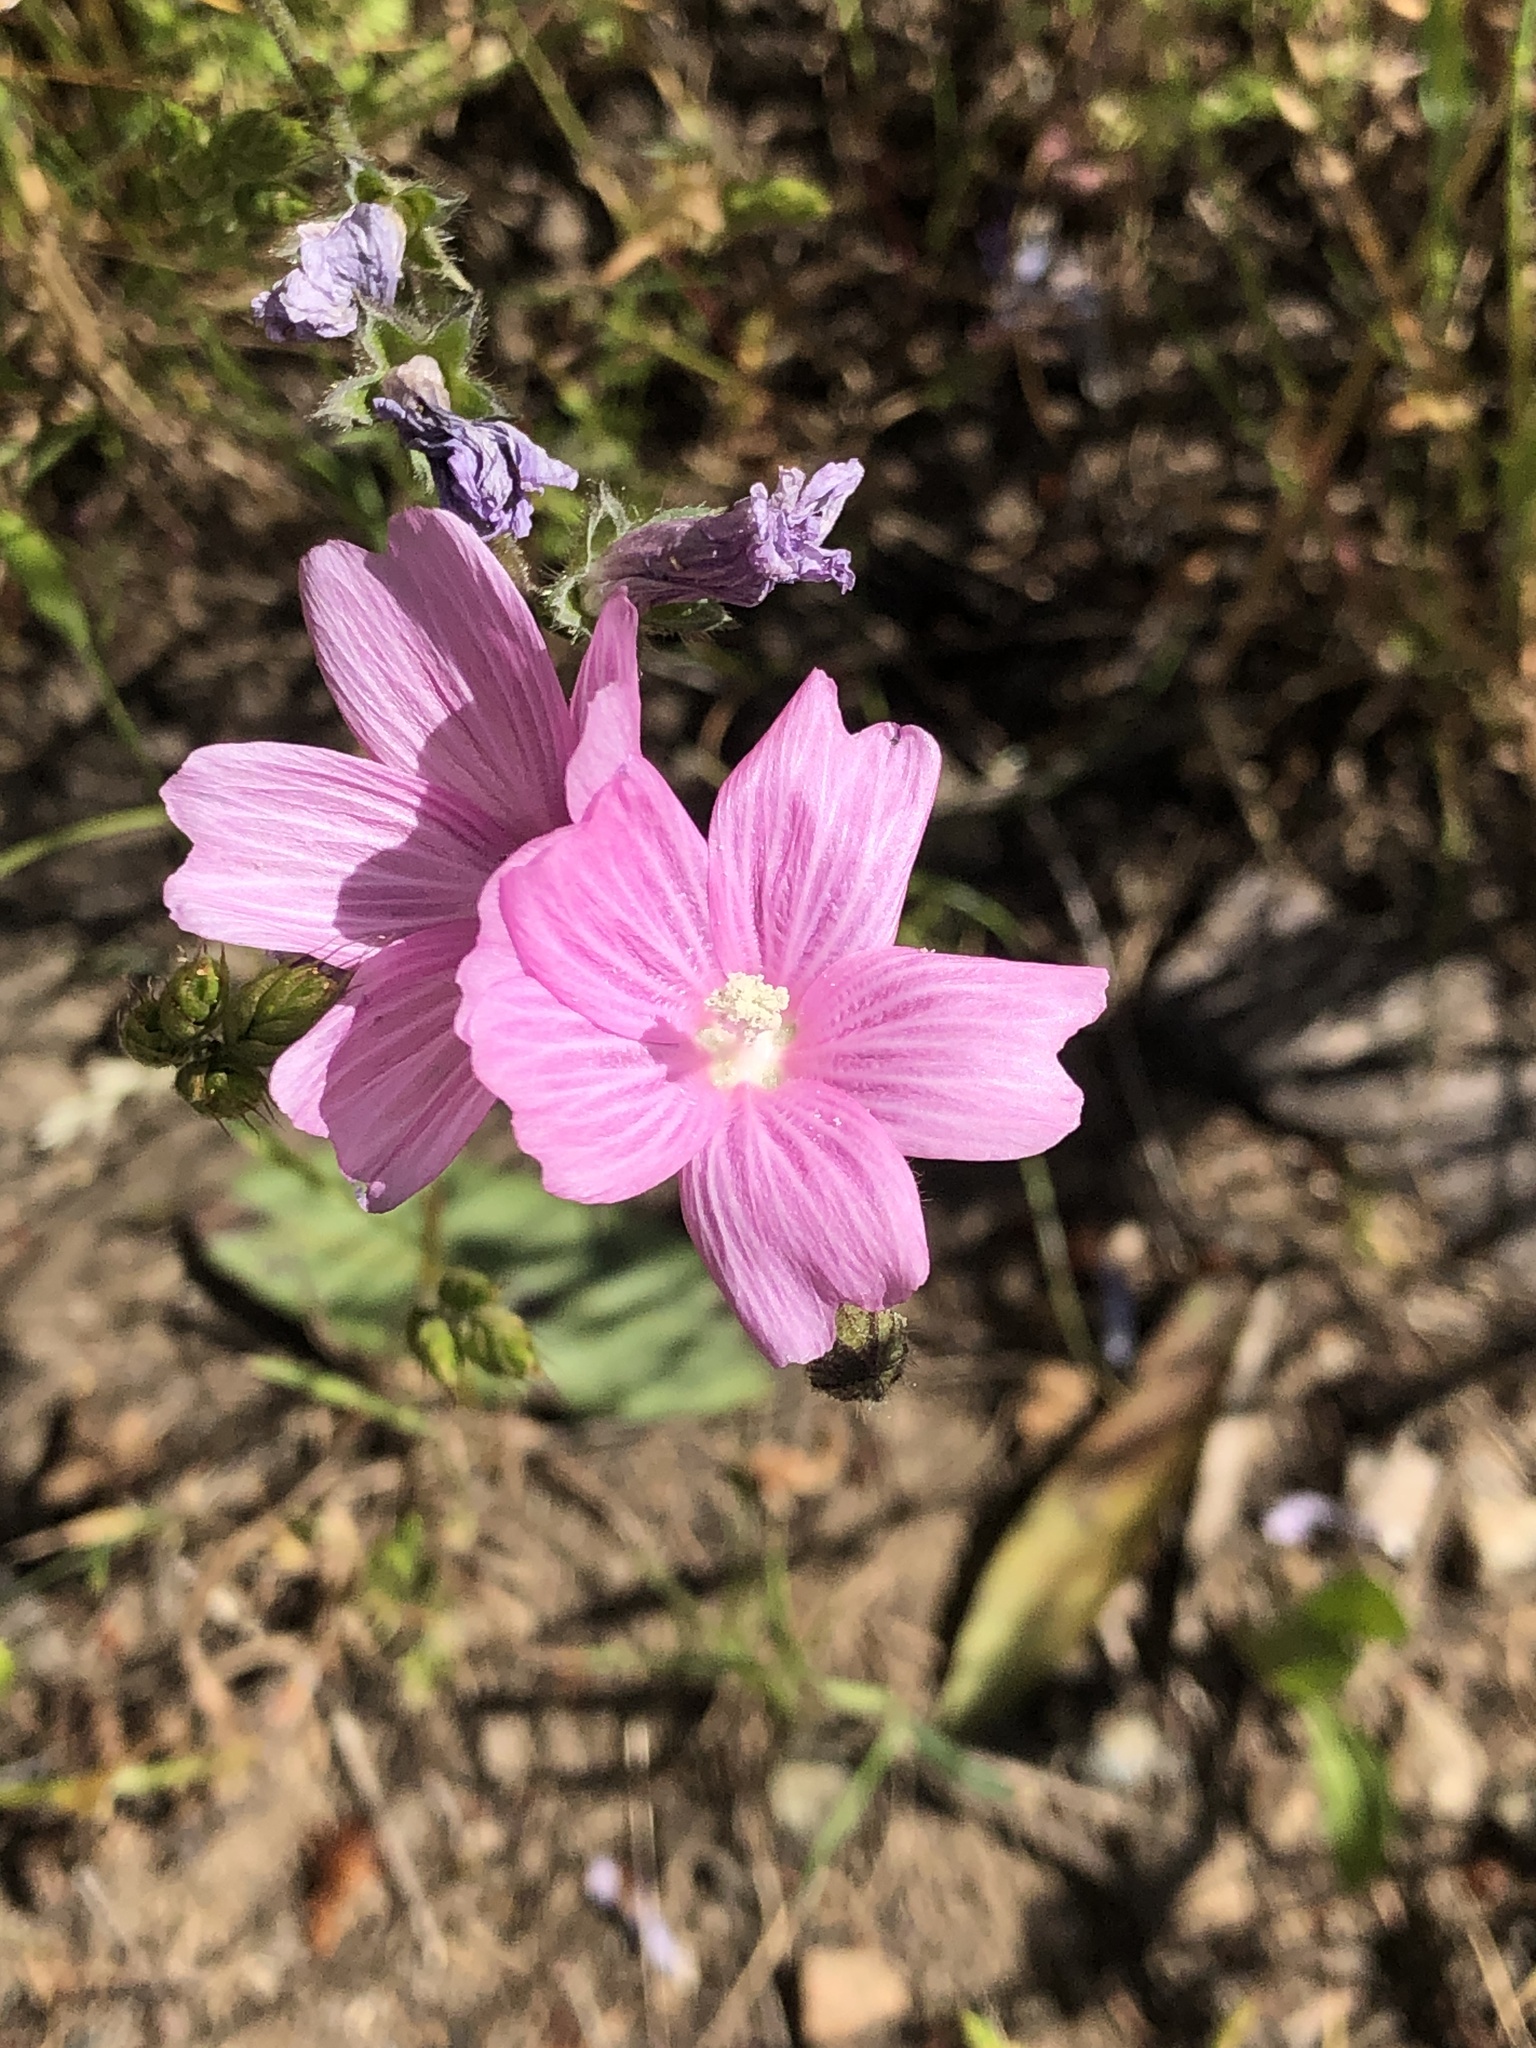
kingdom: Plantae
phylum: Tracheophyta
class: Magnoliopsida
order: Malvales
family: Malvaceae
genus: Sidalcea
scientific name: Sidalcea malviflora
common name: Greek mallow
